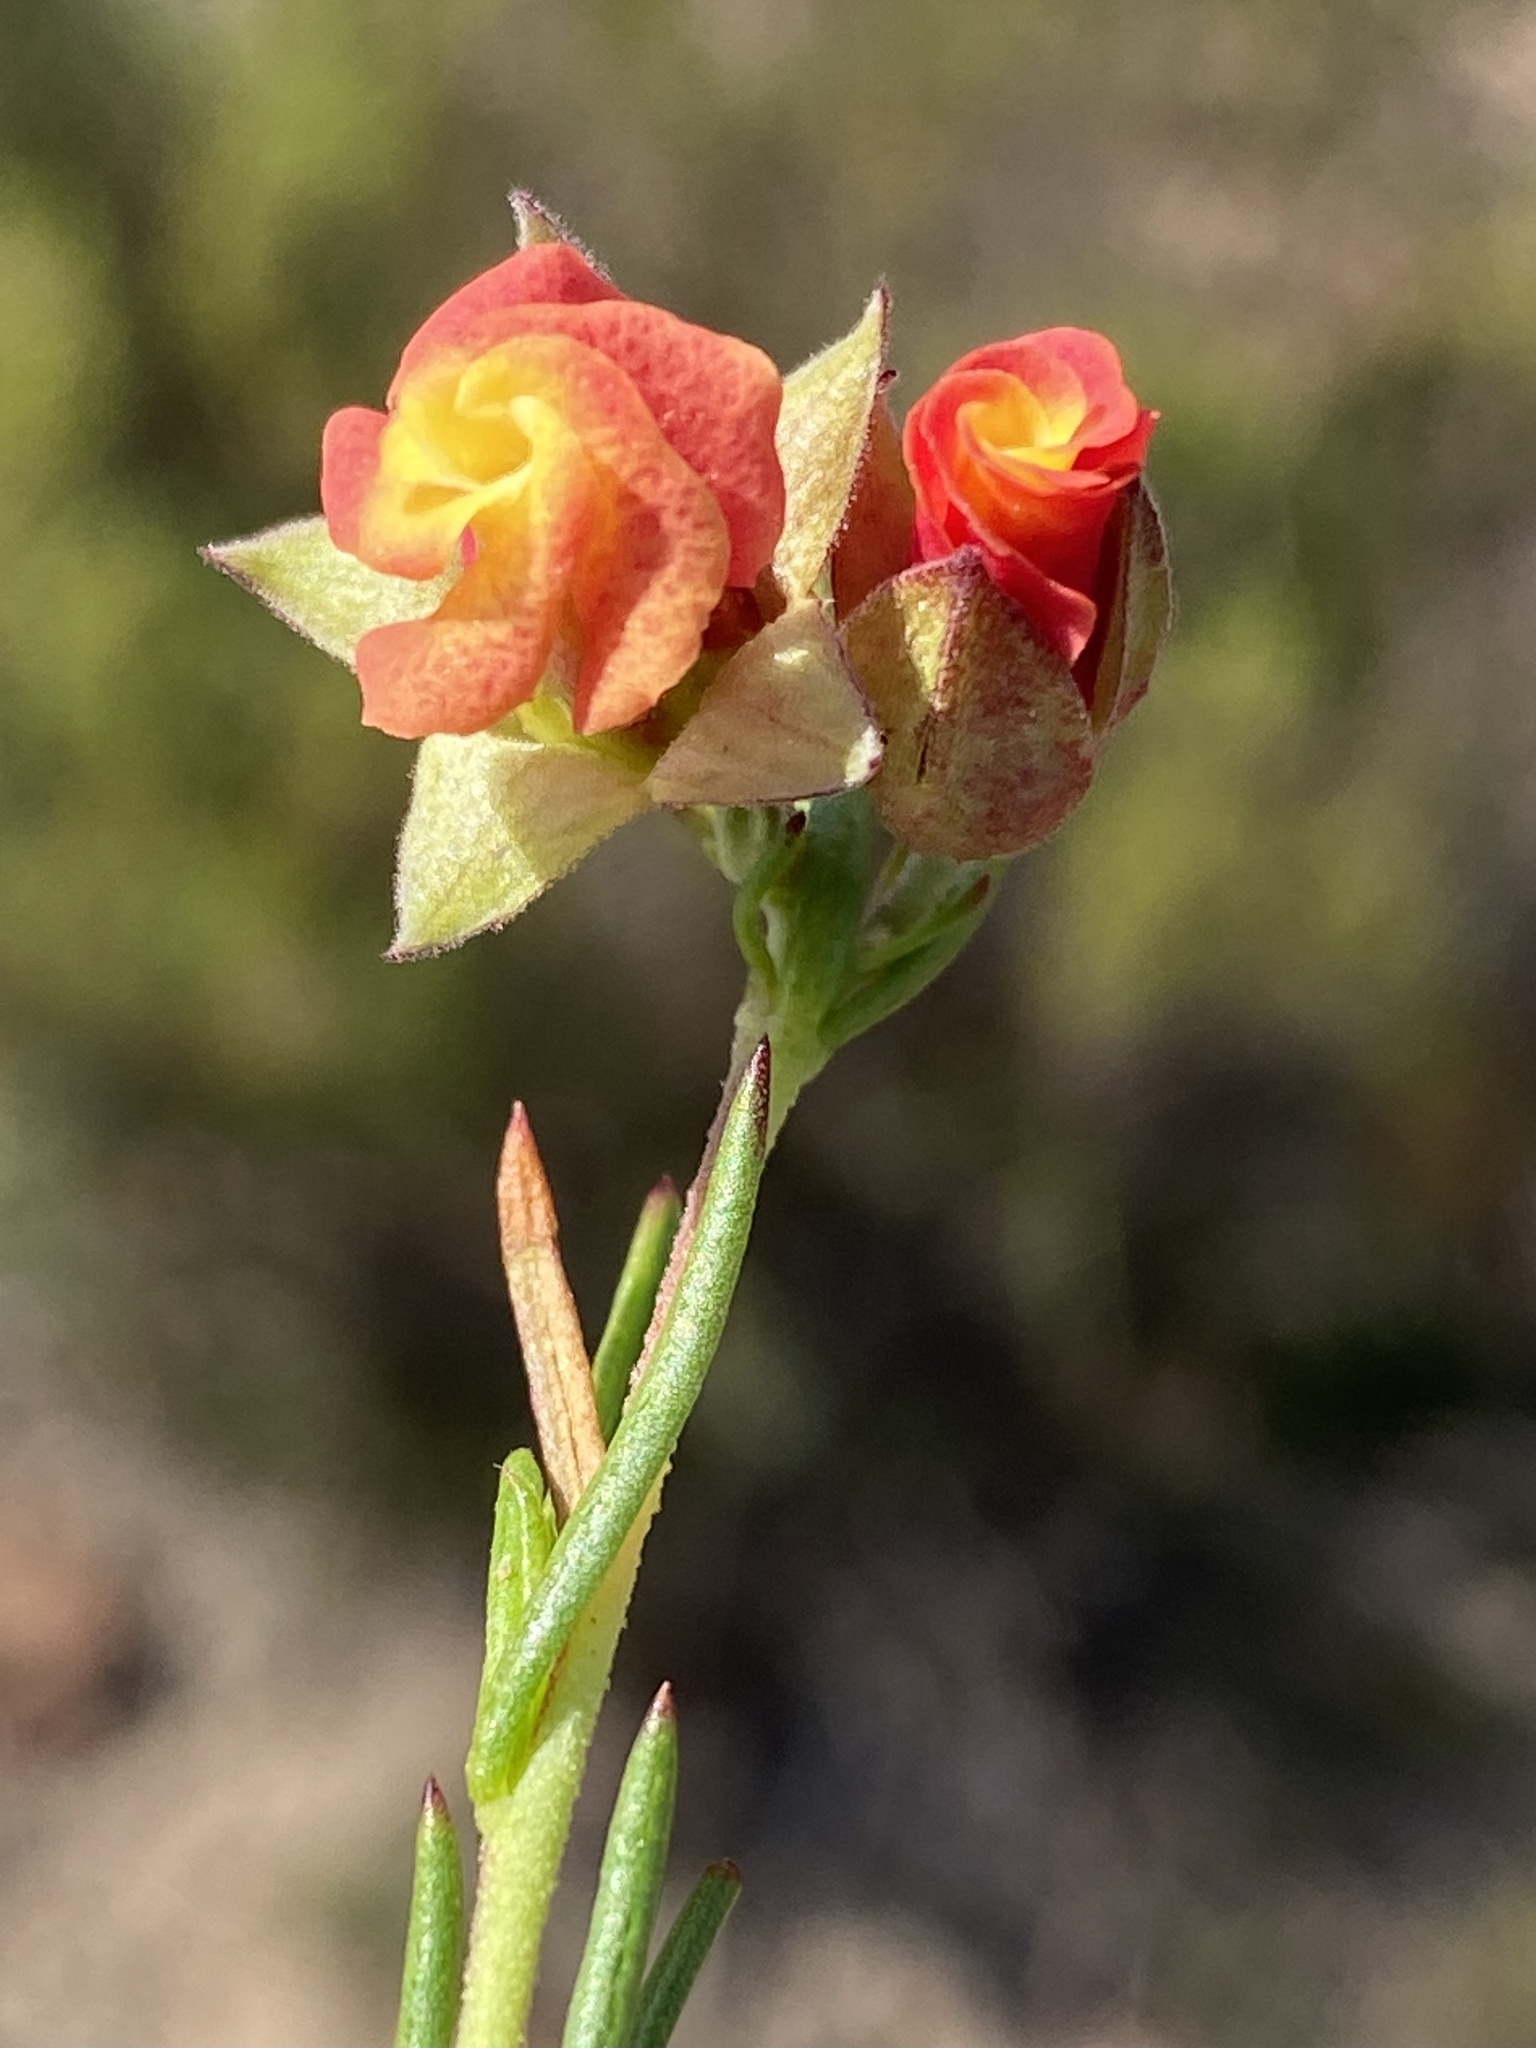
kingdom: Plantae
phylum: Tracheophyta
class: Magnoliopsida
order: Malvales
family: Malvaceae
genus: Hermannia
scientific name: Hermannia filifolia
